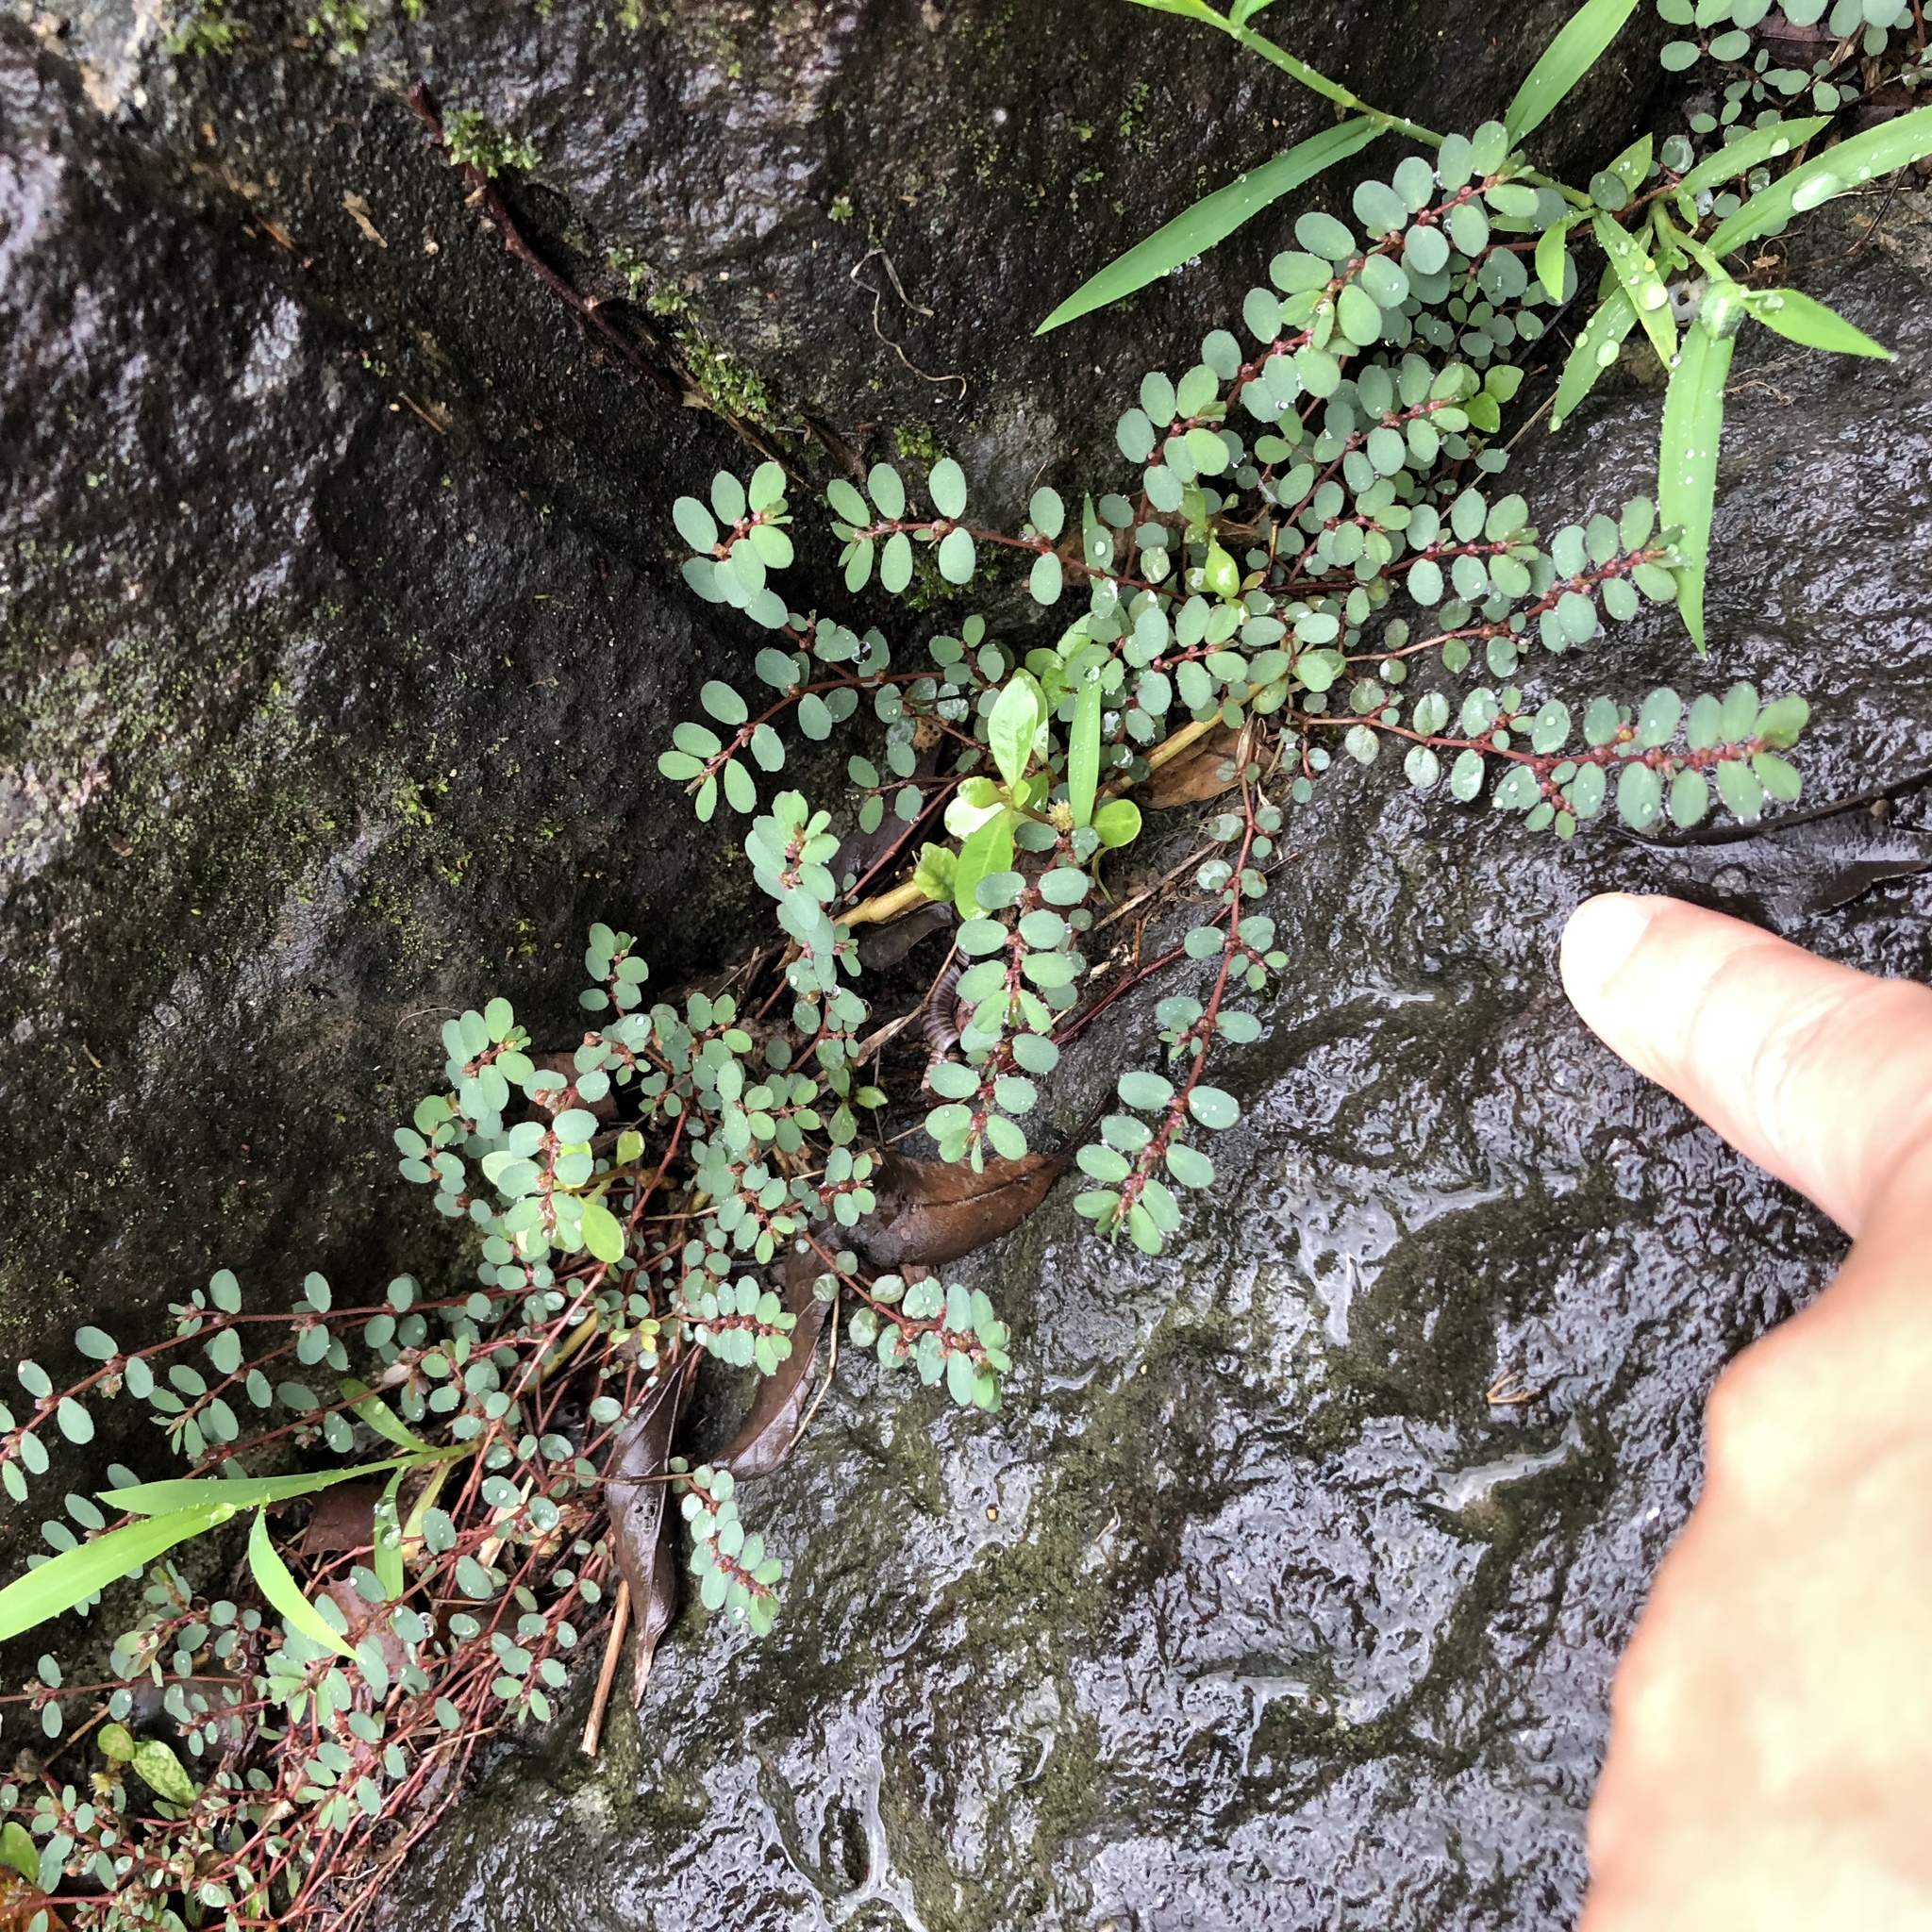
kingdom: Plantae
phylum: Tracheophyta
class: Magnoliopsida
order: Malpighiales
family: Euphorbiaceae
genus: Euphorbia
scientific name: Euphorbia prostrata
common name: Prostrate sandmat
